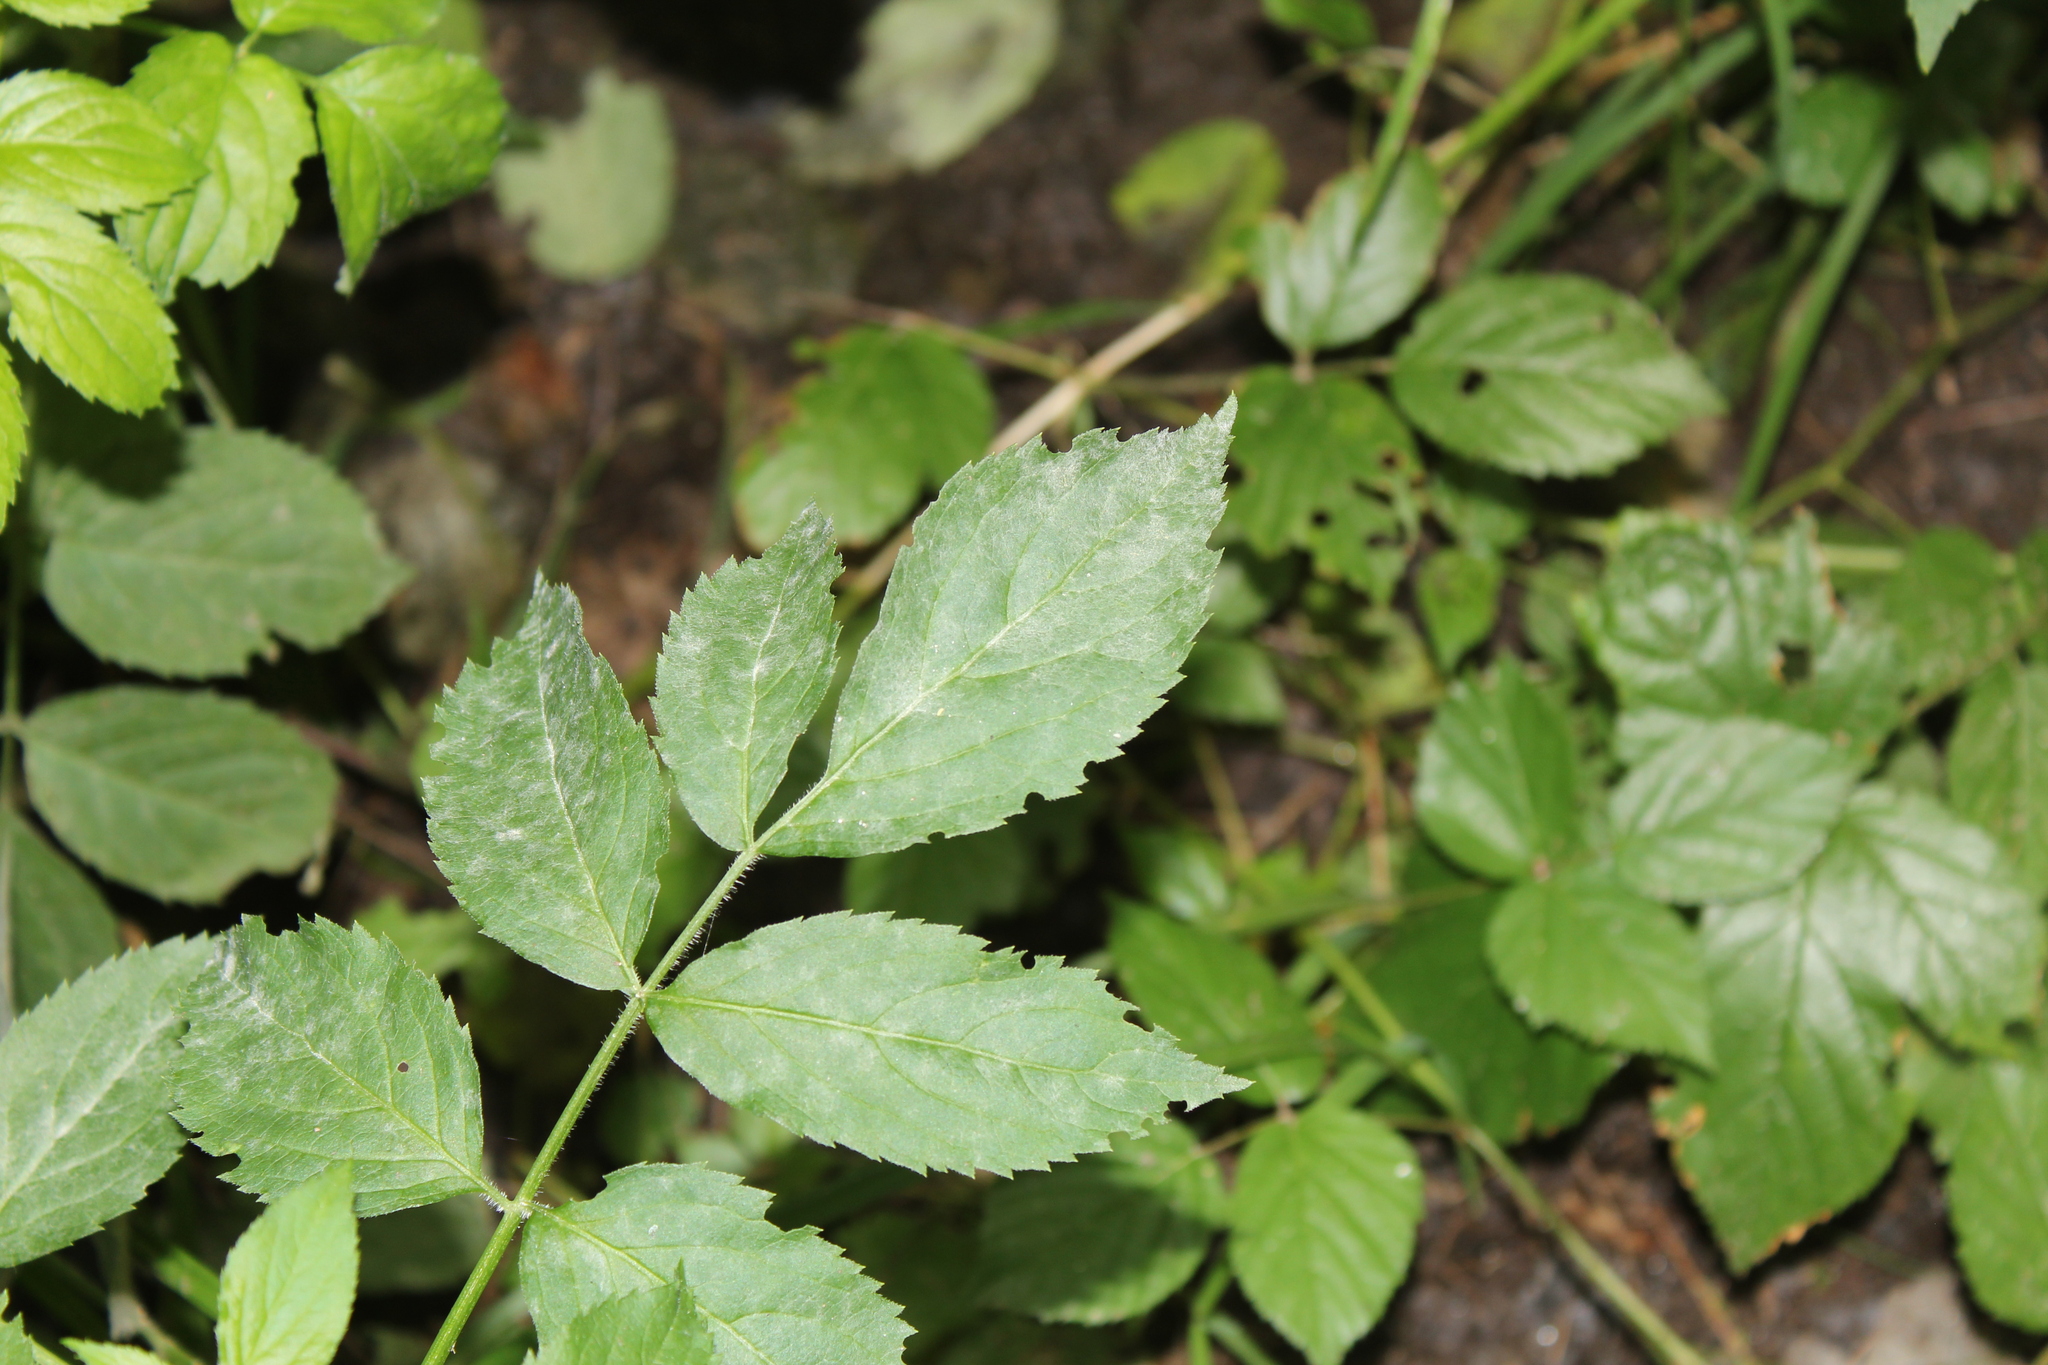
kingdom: Fungi
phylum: Ascomycota
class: Leotiomycetes
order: Helotiales
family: Erysiphaceae
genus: Erysiphe
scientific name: Erysiphe vanbruntiana
